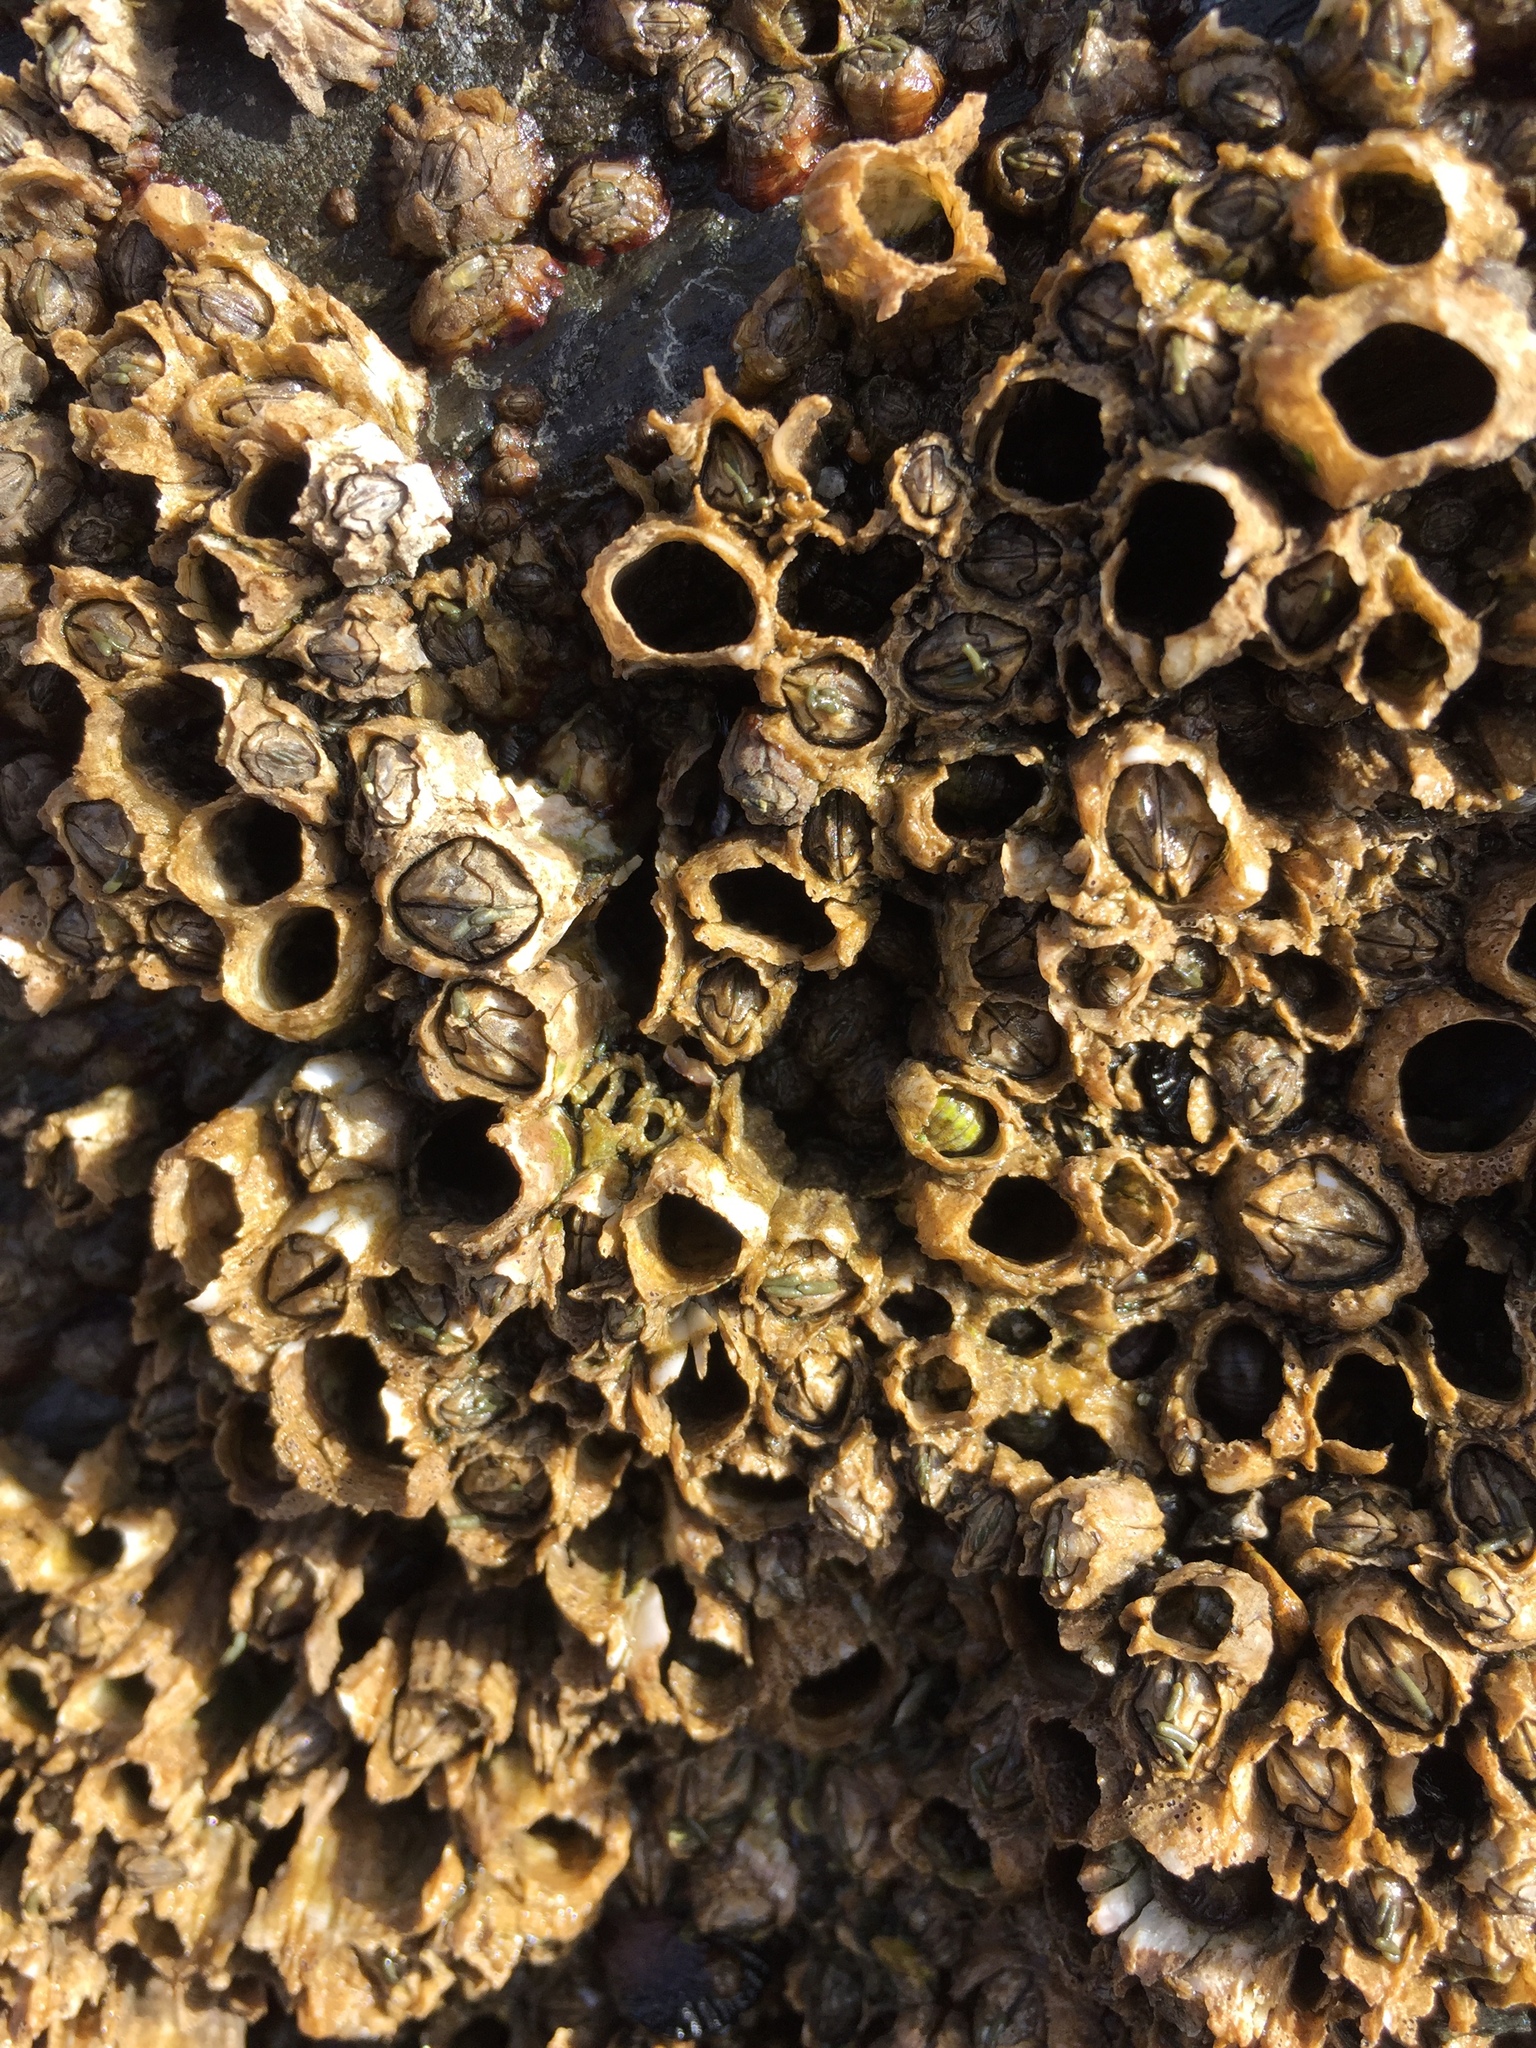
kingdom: Animalia
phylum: Arthropoda
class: Maxillopoda
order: Sessilia
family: Chthamalidae
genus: Jehlius
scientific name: Jehlius cirratus
